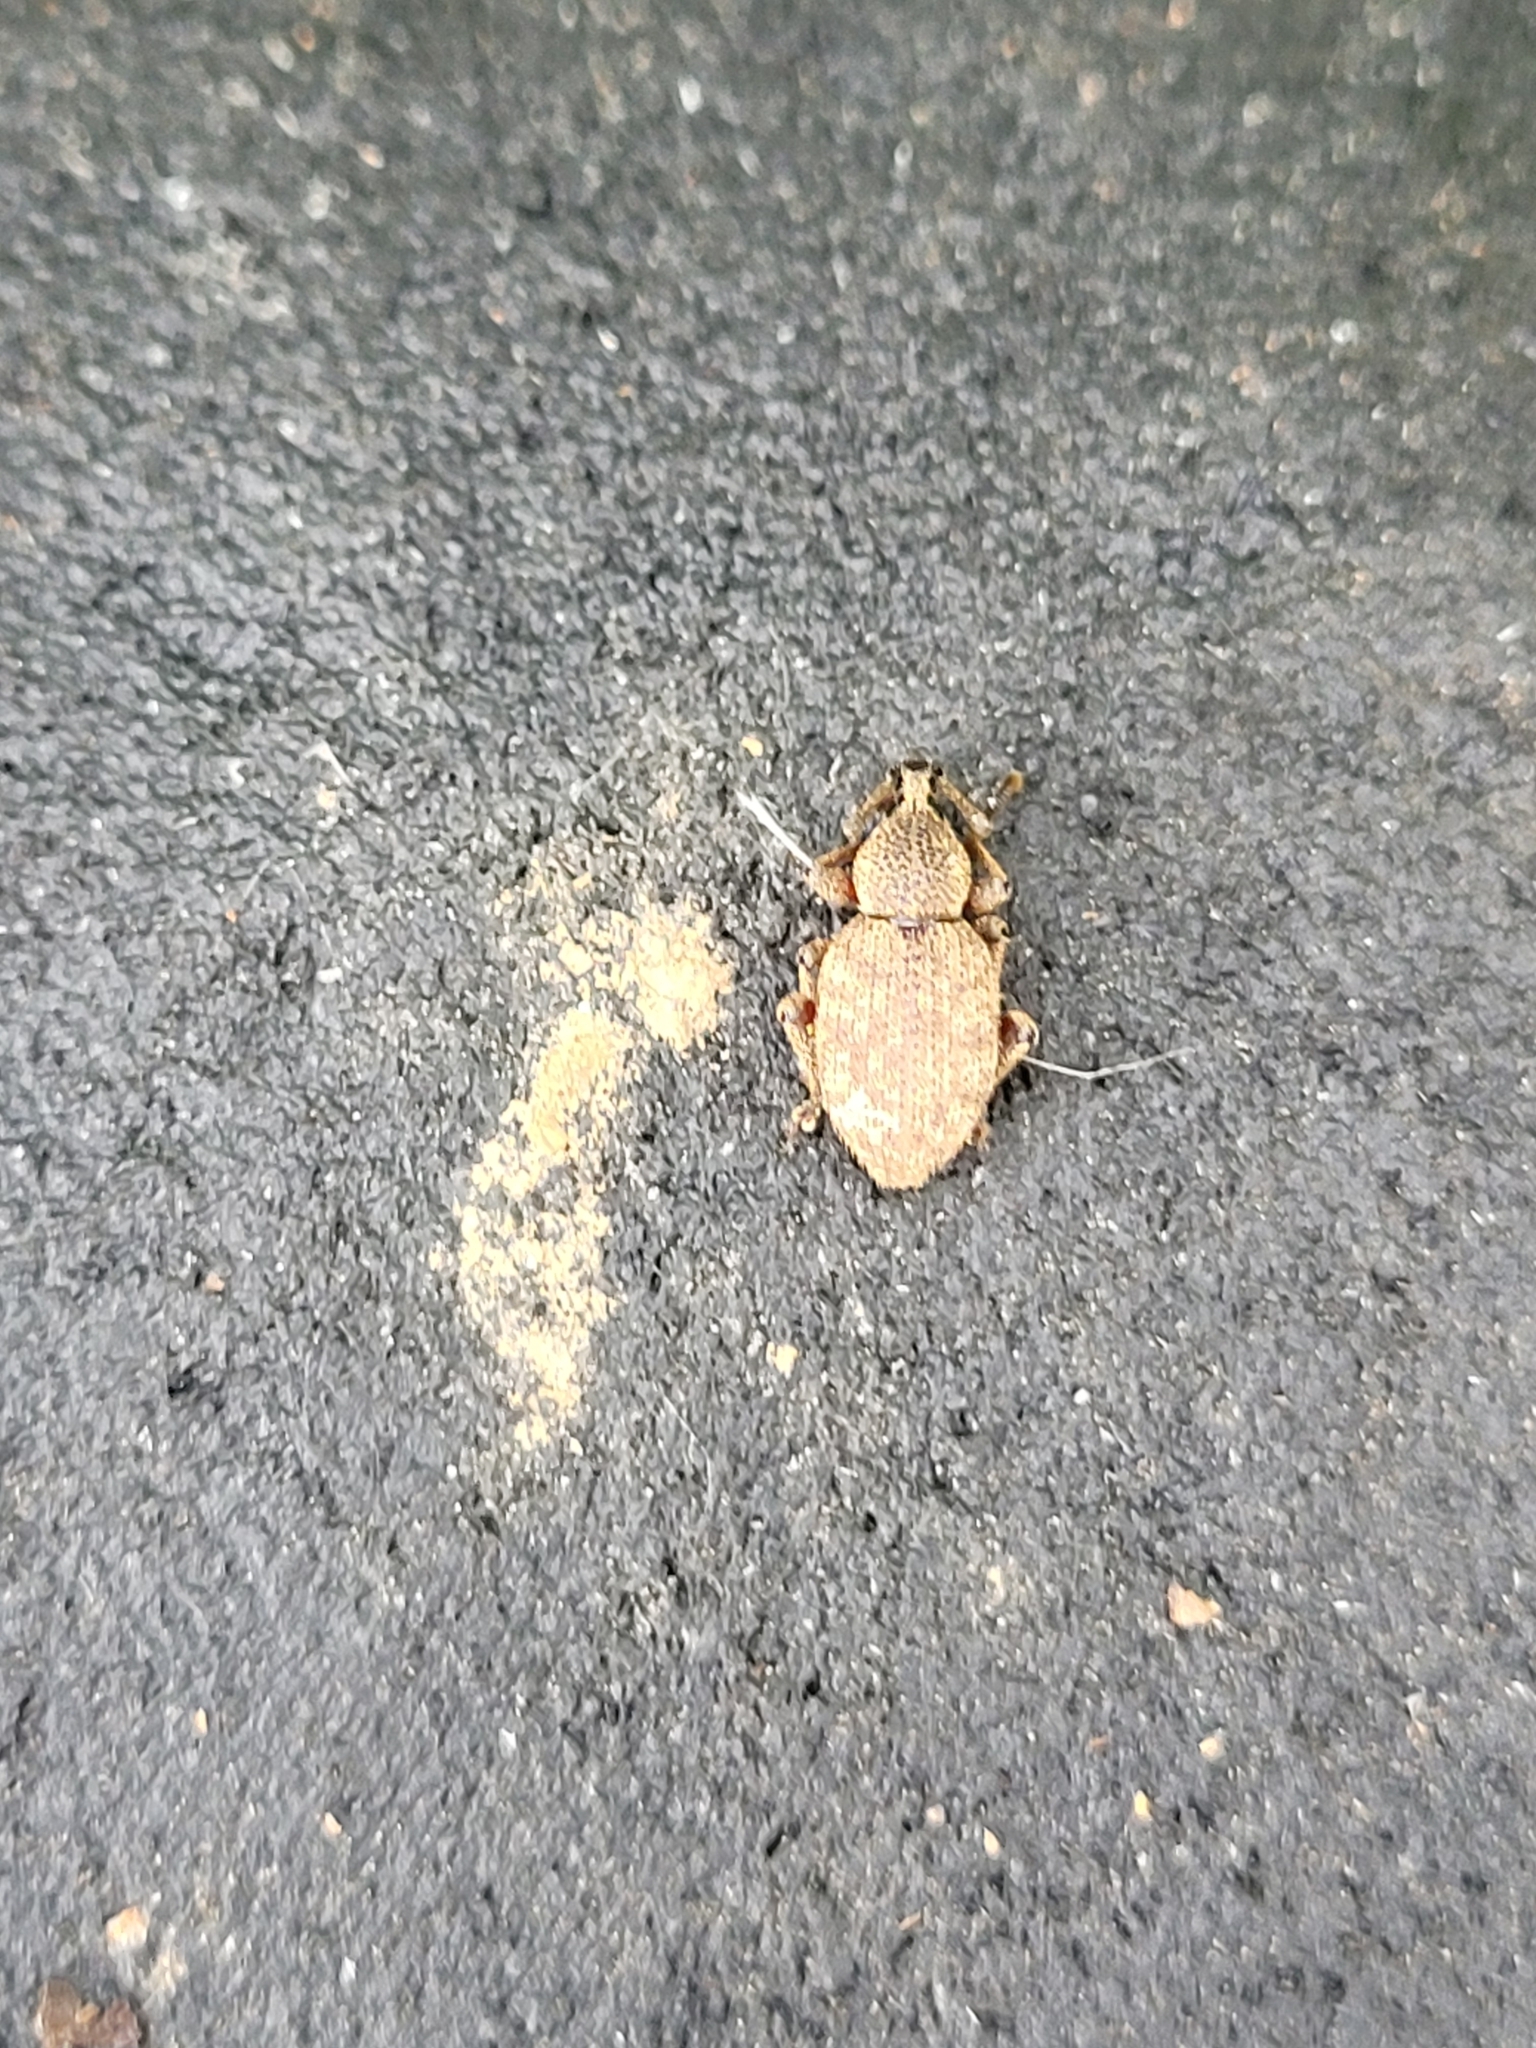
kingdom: Animalia
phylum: Arthropoda
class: Insecta
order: Coleoptera
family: Curculionidae
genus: Otiorhynchus
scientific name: Otiorhynchus singularis
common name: Clay-coloured weevil
